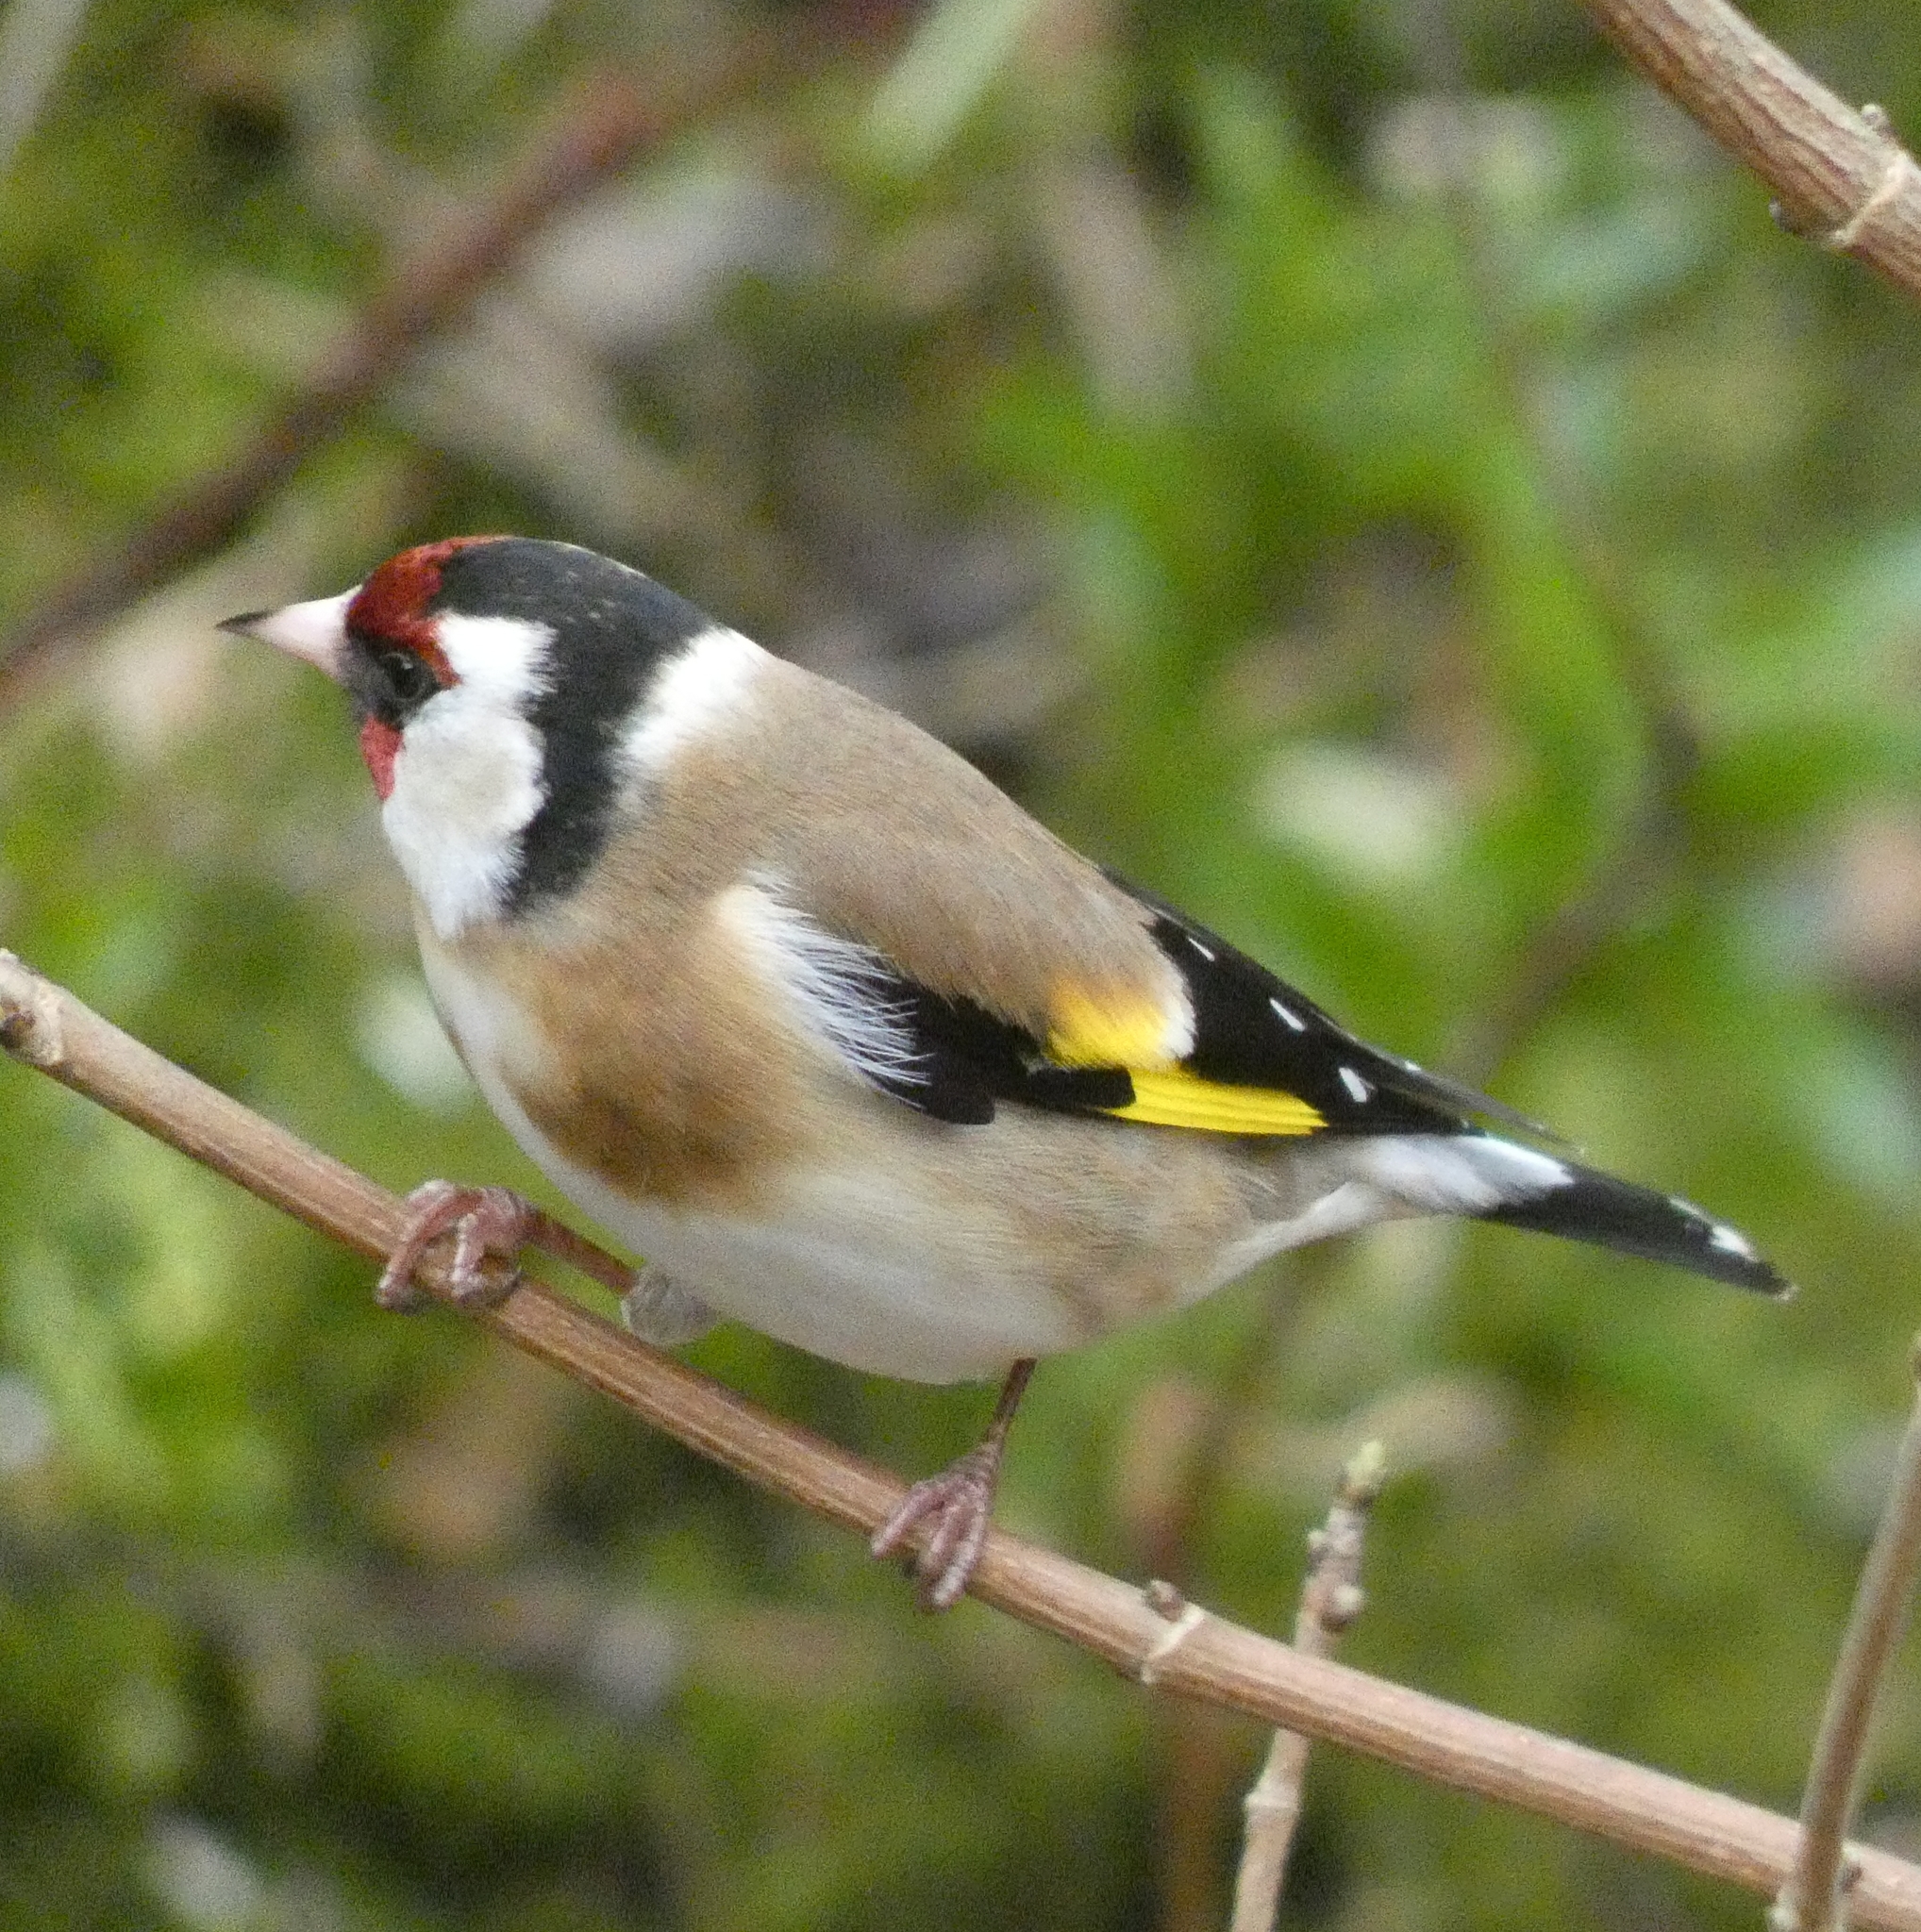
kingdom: Animalia
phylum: Chordata
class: Aves
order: Passeriformes
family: Fringillidae
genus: Carduelis
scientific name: Carduelis carduelis
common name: European goldfinch
